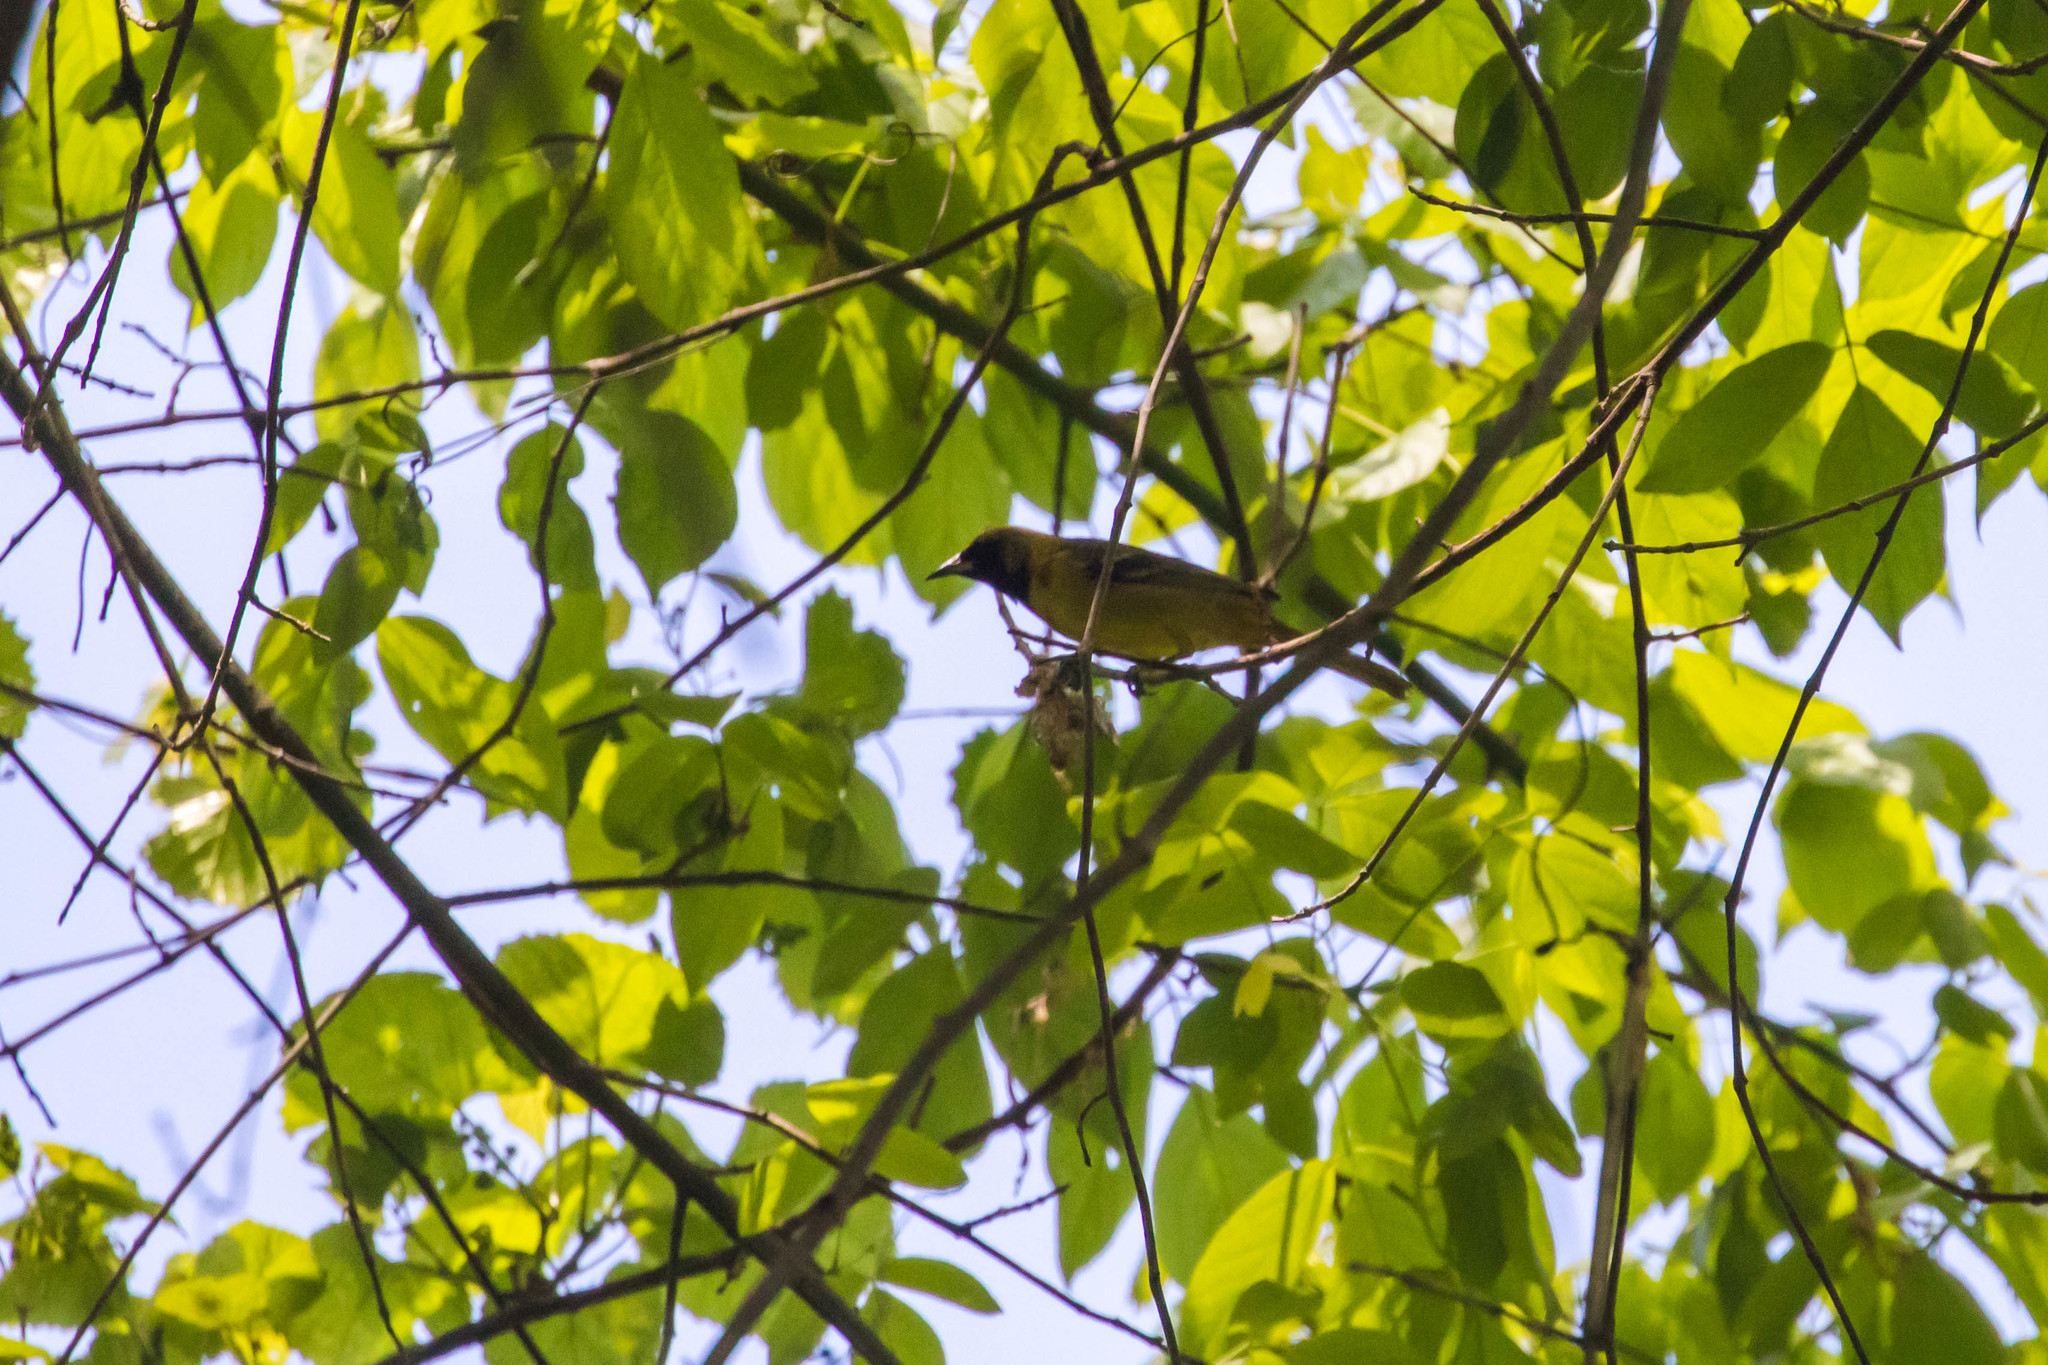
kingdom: Animalia
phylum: Chordata
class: Aves
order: Passeriformes
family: Icteridae
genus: Icterus
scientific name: Icterus spurius
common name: Orchard oriole
